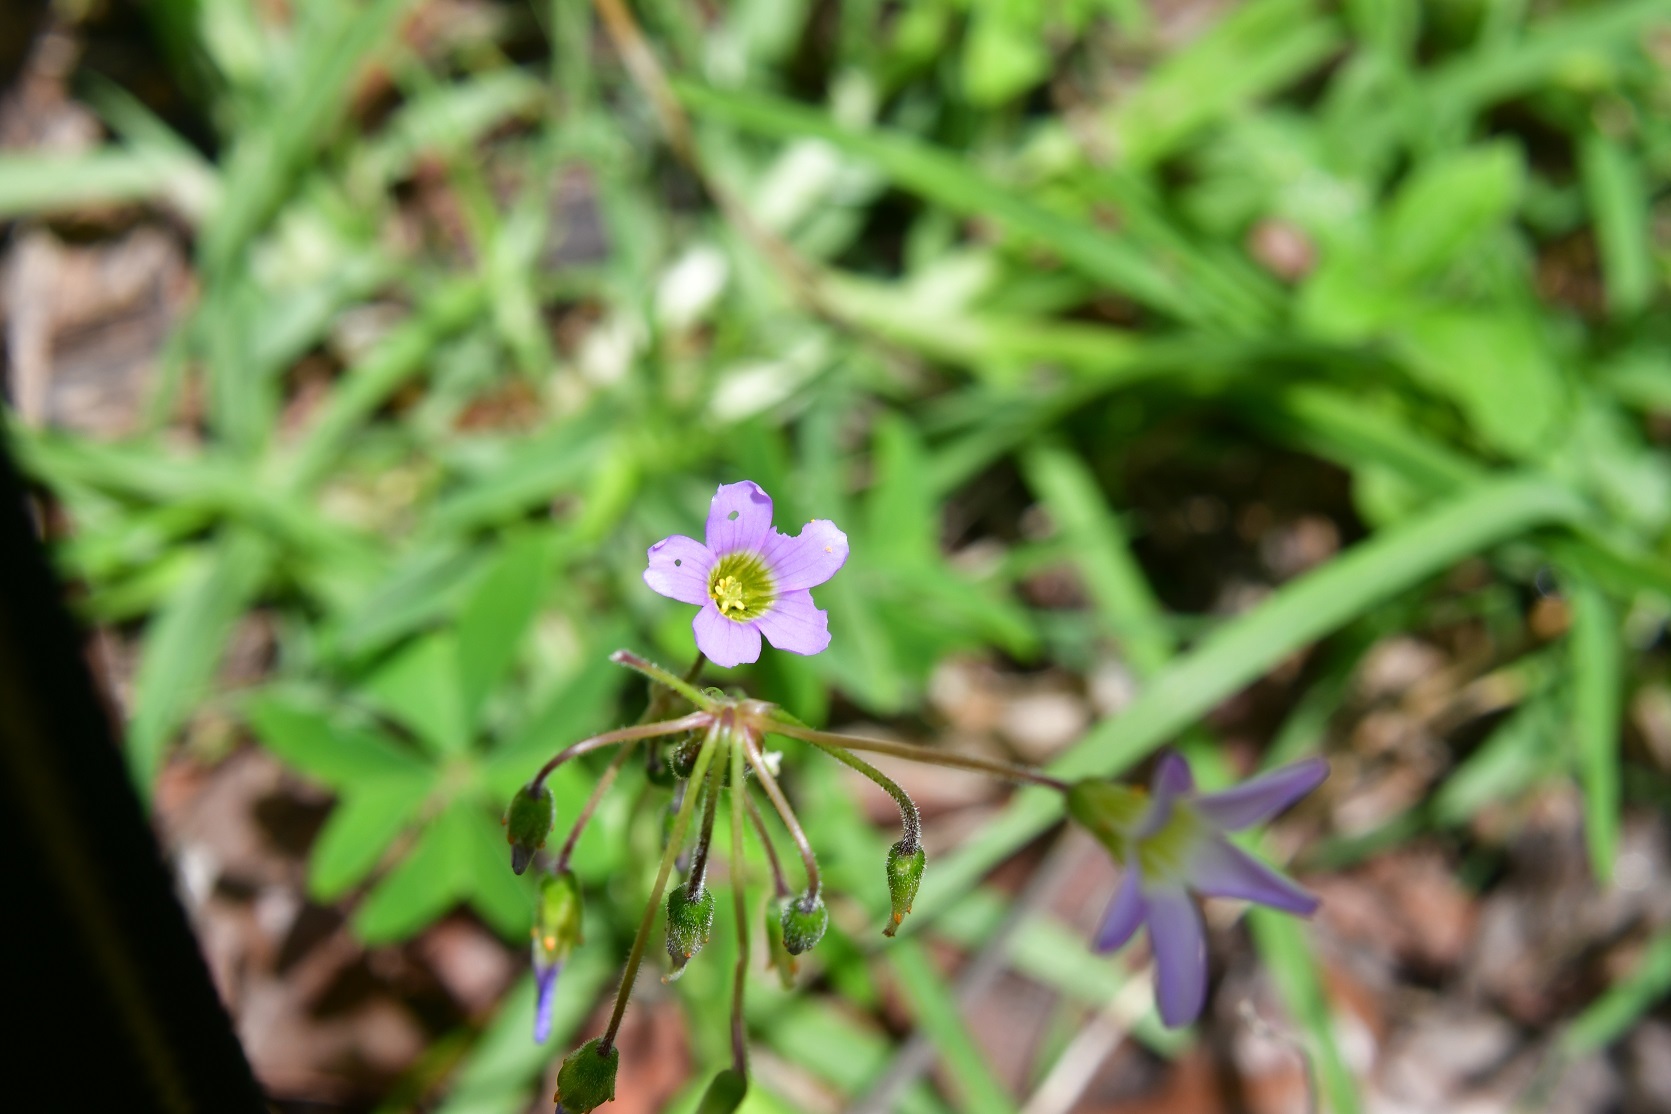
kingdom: Plantae
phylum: Tracheophyta
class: Magnoliopsida
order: Oxalidales
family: Oxalidaceae
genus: Oxalis
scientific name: Oxalis tetraphylla
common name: Four-leaved pink-sorrel
